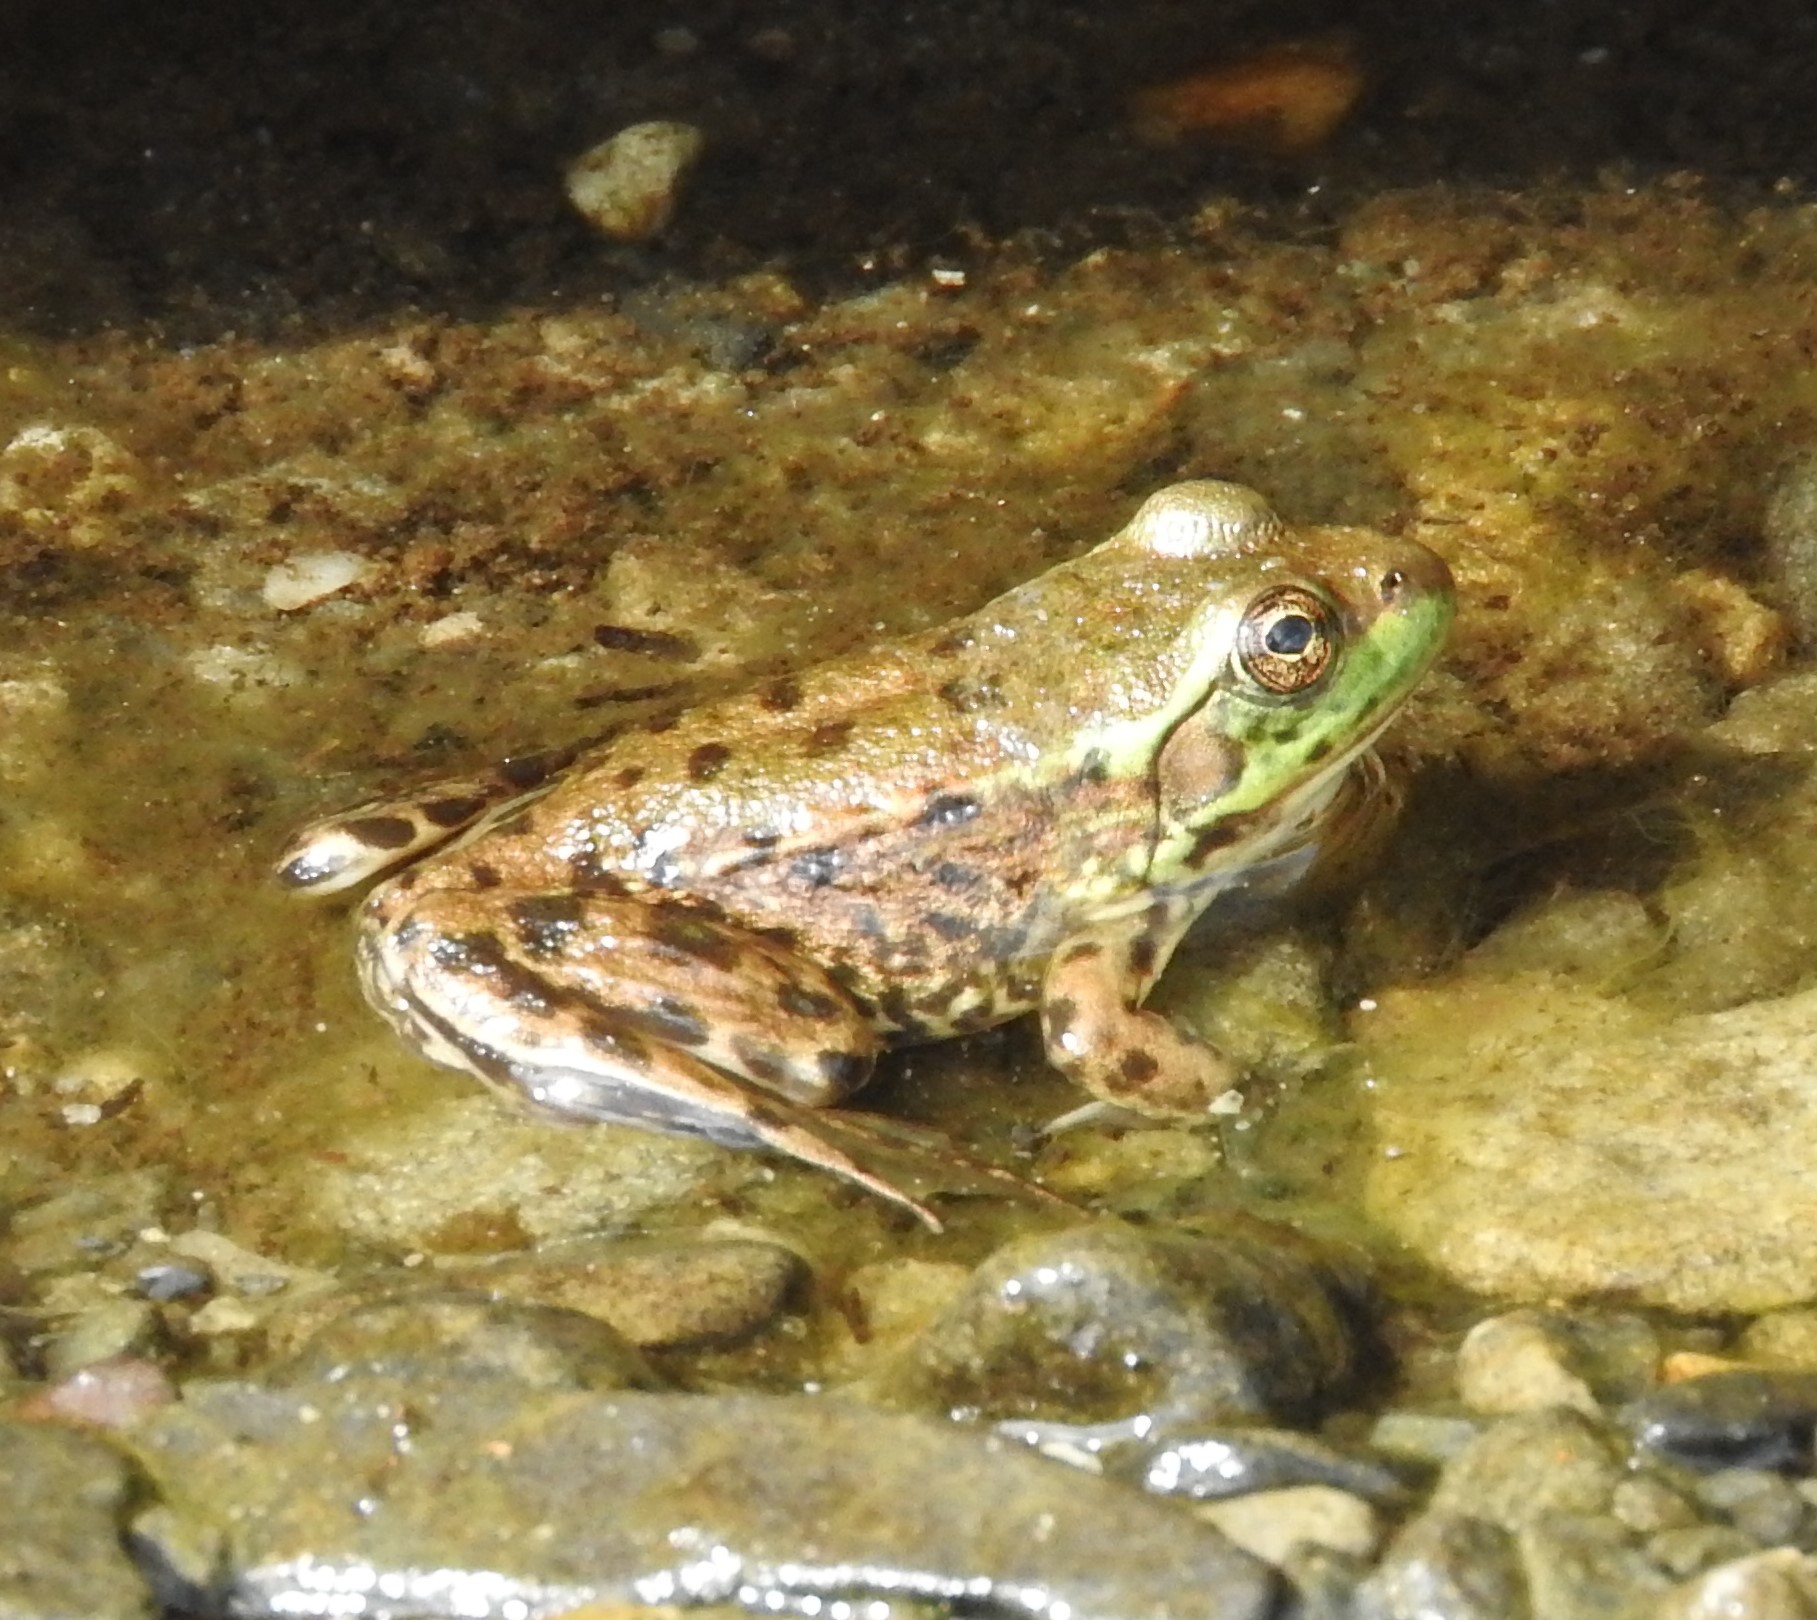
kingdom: Animalia
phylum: Chordata
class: Amphibia
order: Anura
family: Ranidae
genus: Lithobates
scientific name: Lithobates septentrionalis
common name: Mink frog
